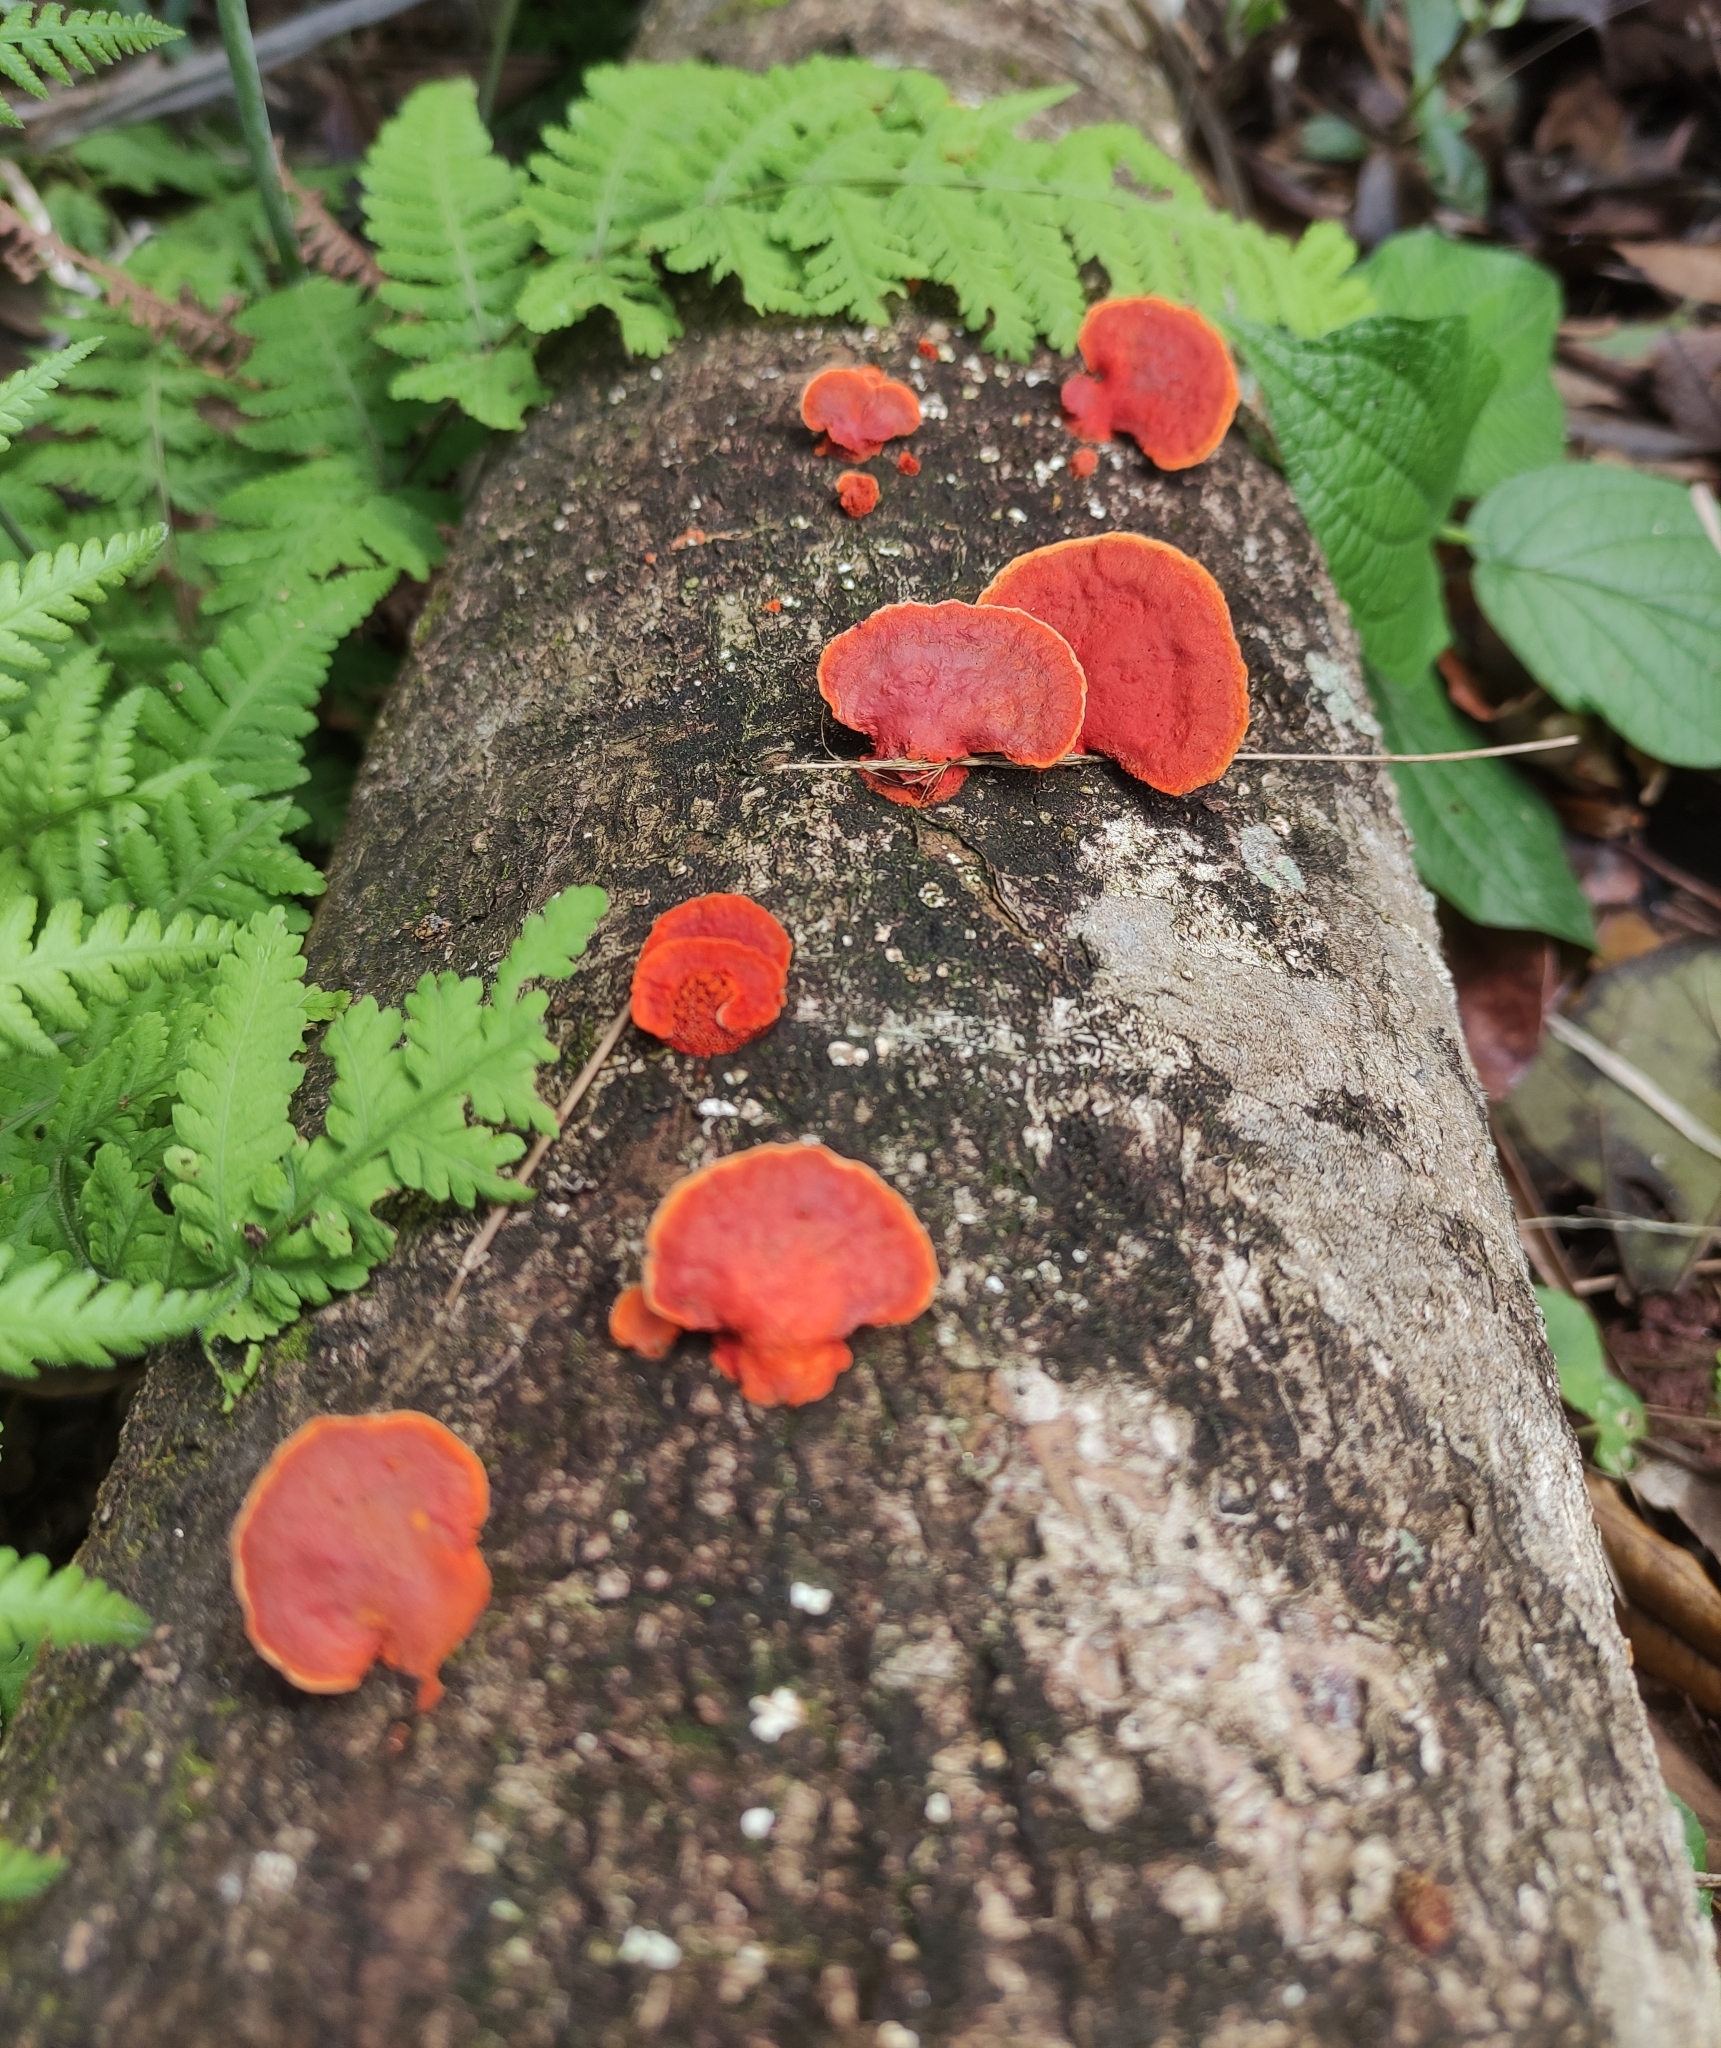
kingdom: Fungi
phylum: Basidiomycota
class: Agaricomycetes
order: Polyporales
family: Polyporaceae
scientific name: Polyporaceae
